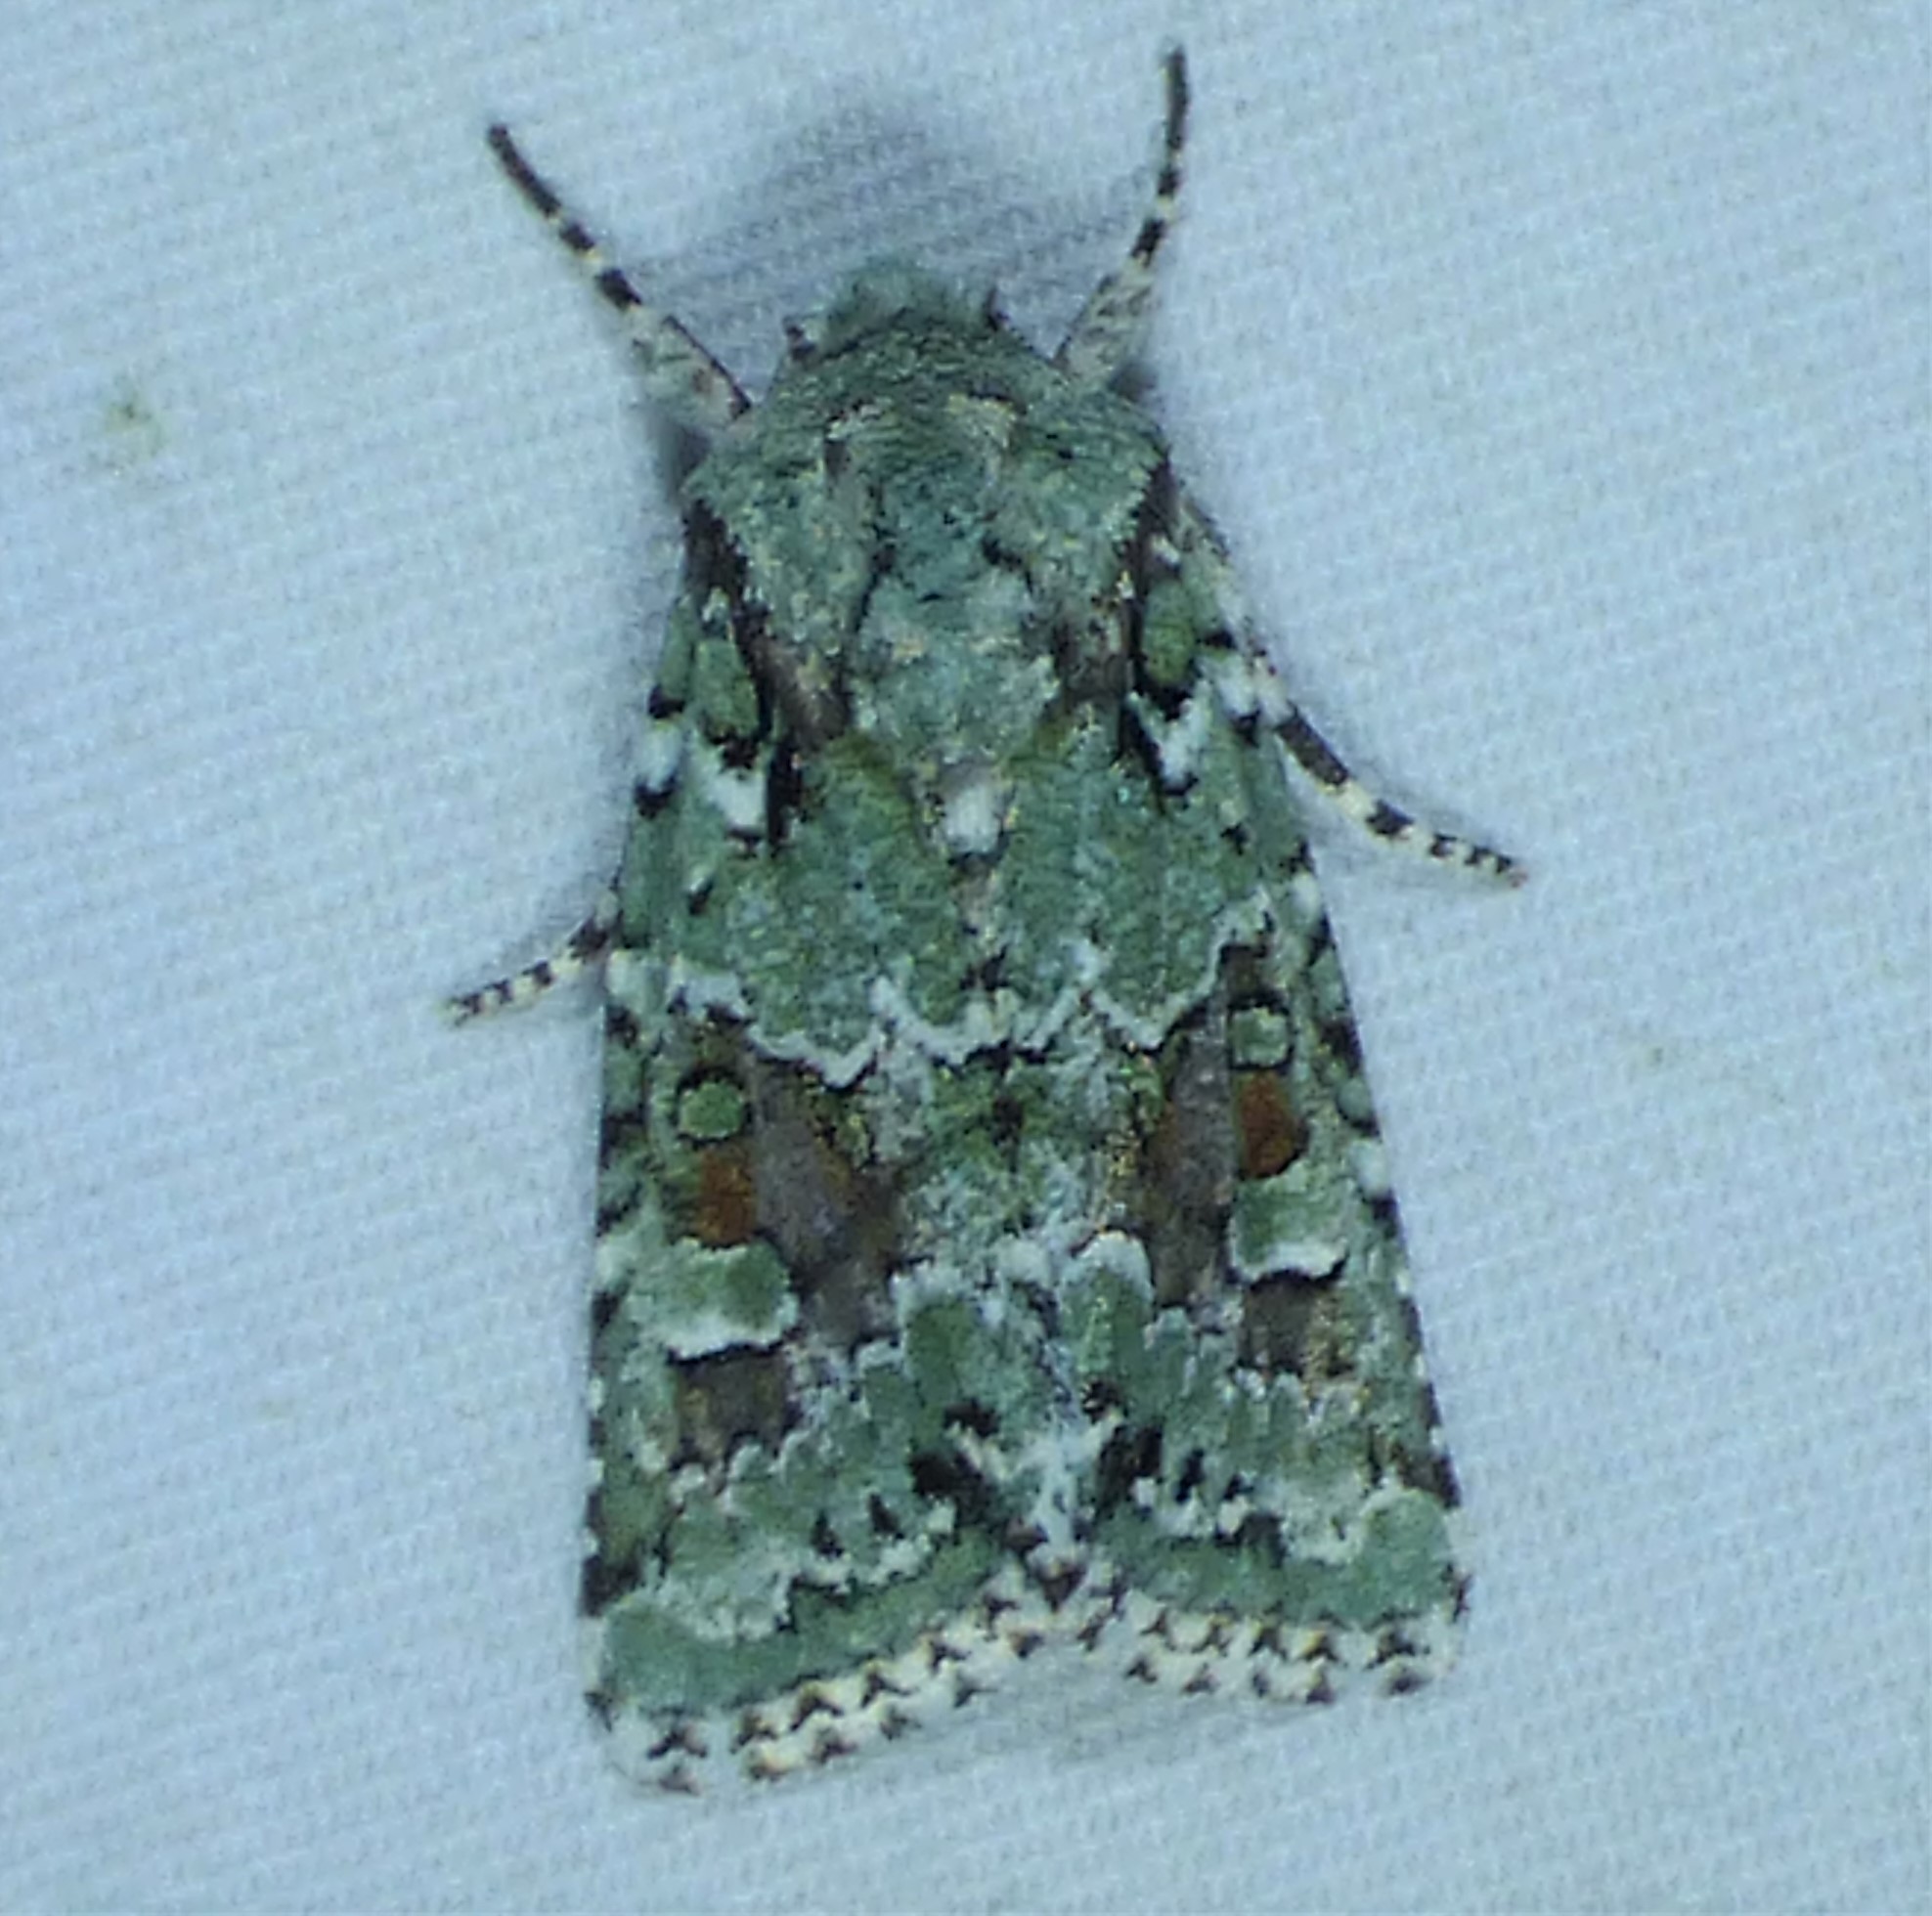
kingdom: Animalia
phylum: Arthropoda
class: Insecta
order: Lepidoptera
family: Noctuidae
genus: Lacinipolia
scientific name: Lacinipolia laudabilis
